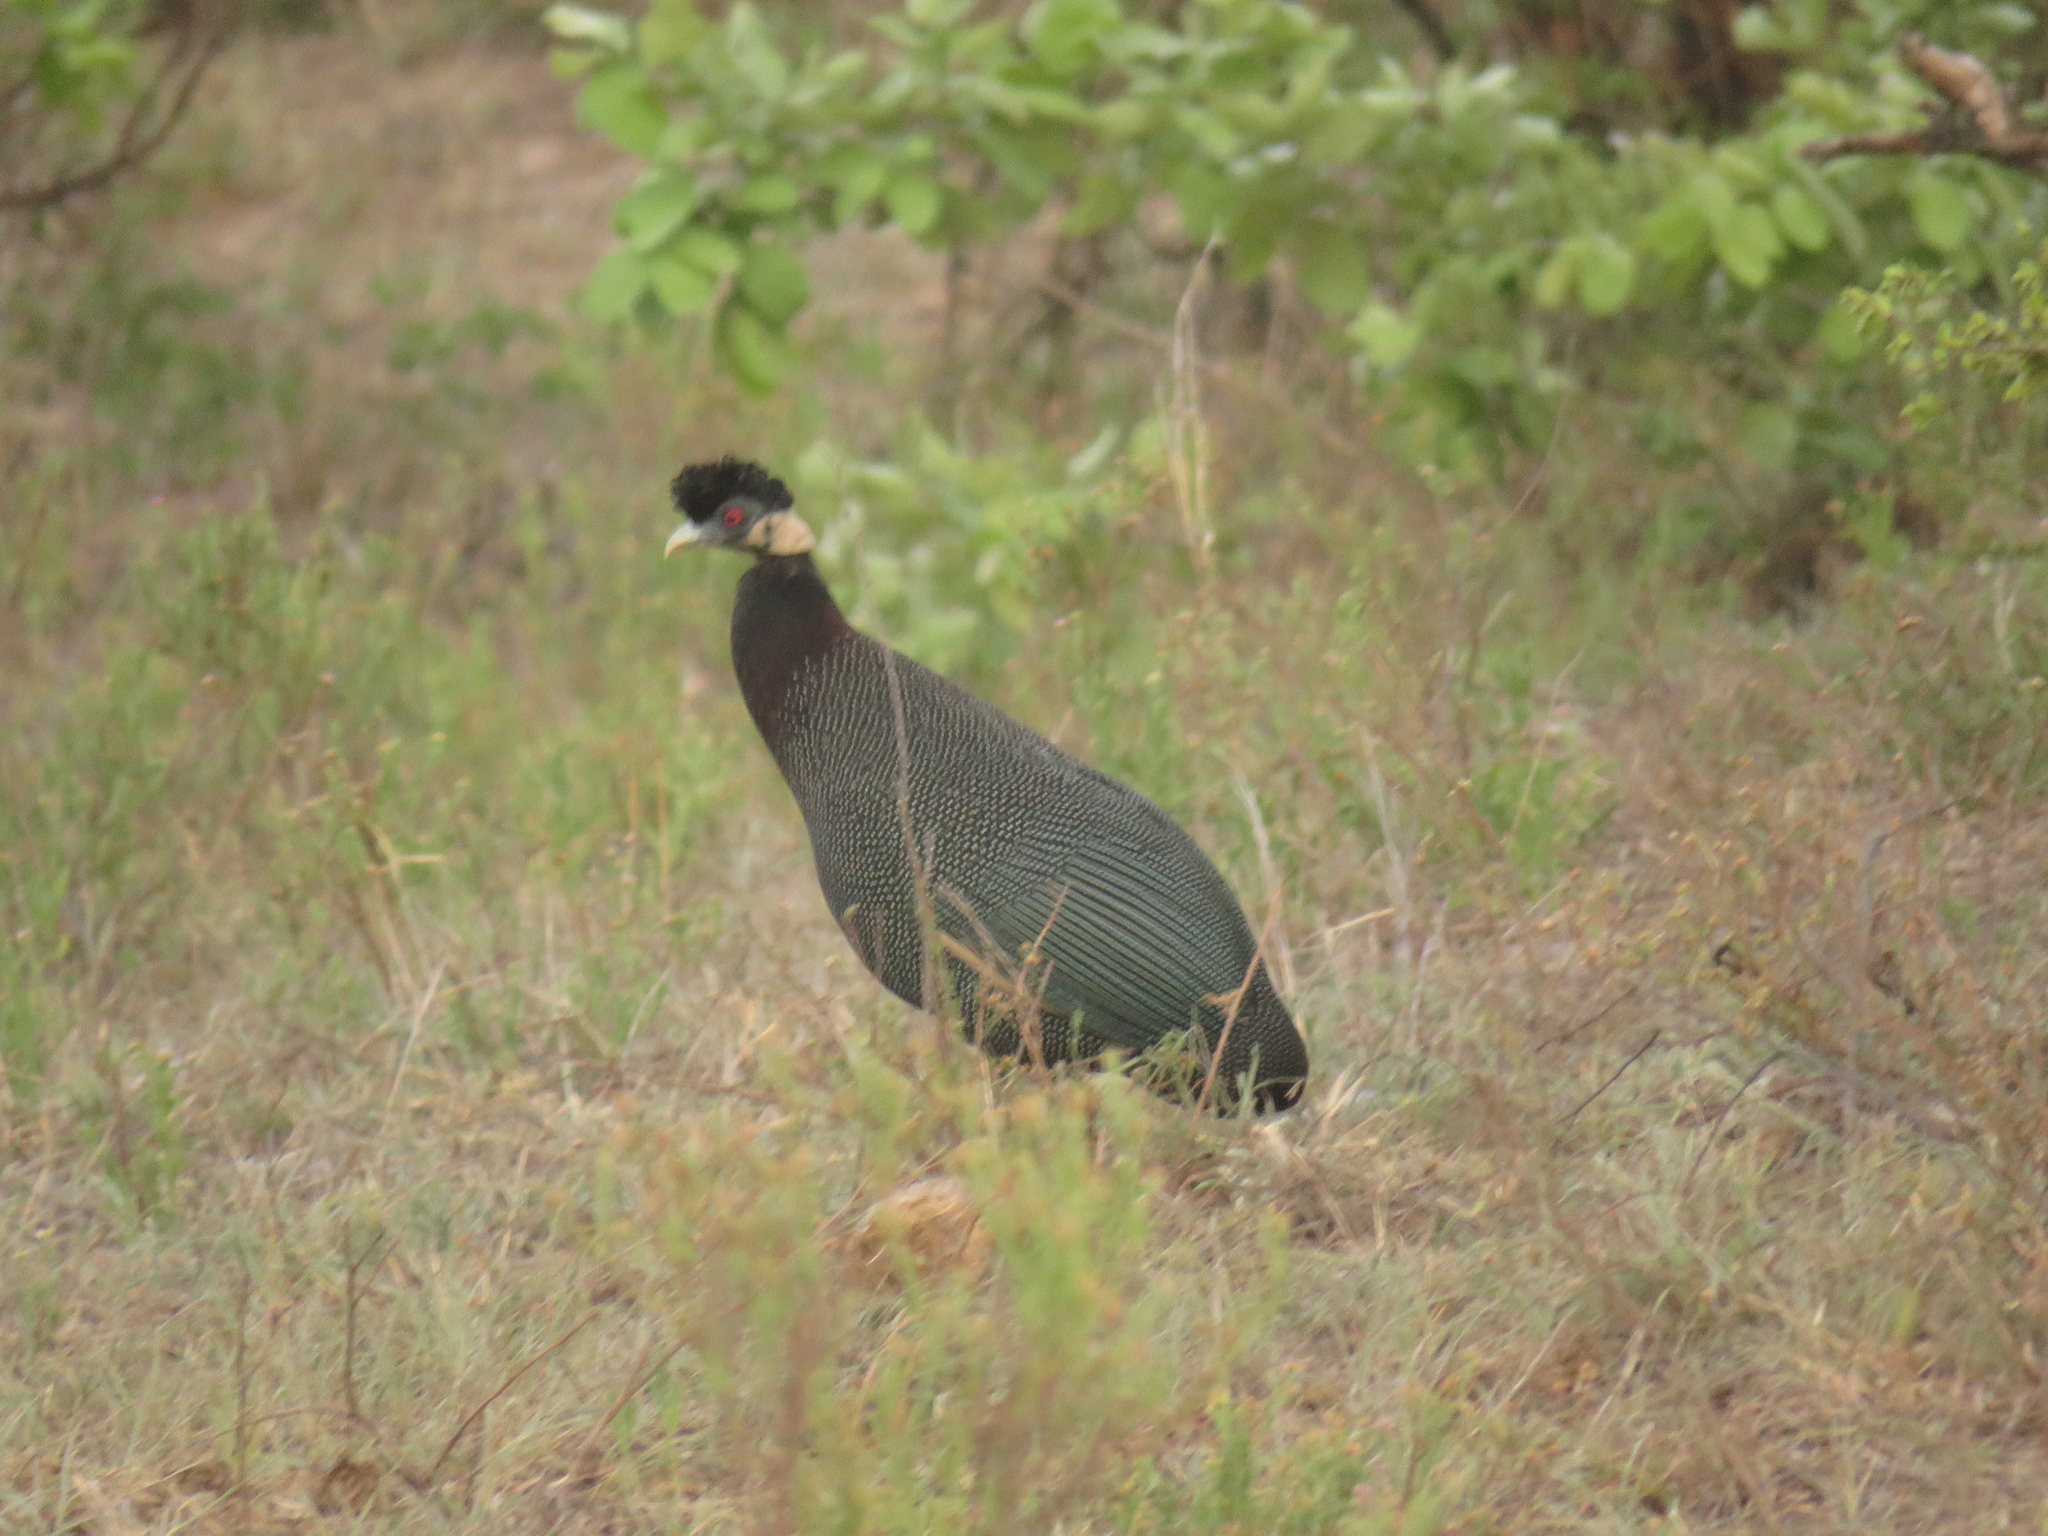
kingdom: Animalia
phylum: Chordata
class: Aves
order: Galliformes
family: Numididae
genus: Guttera
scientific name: Guttera pucherani
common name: Crested guineafowl
